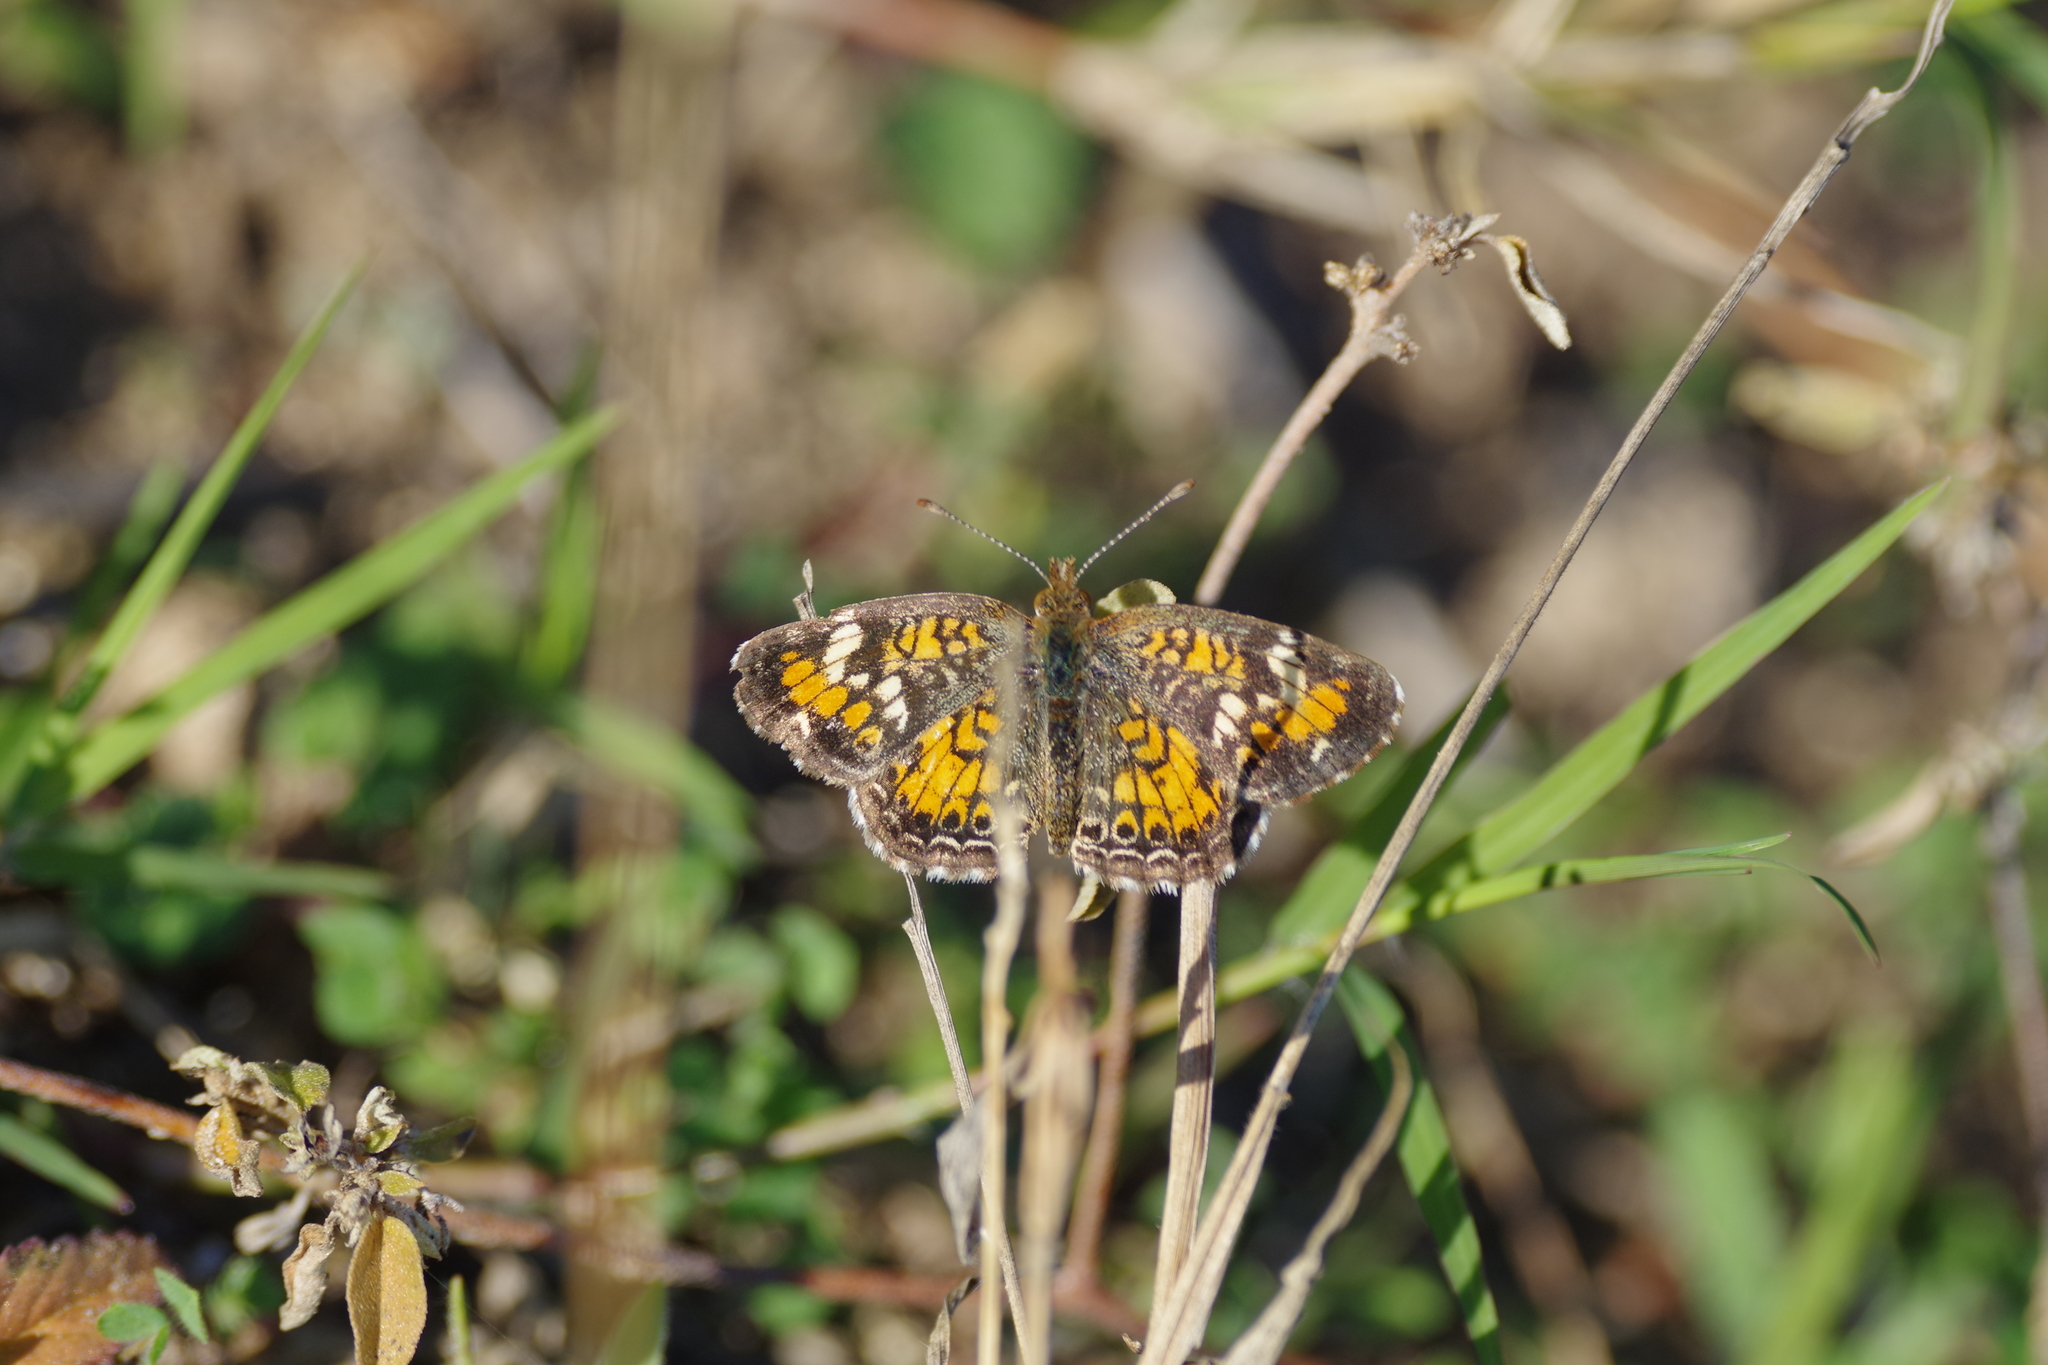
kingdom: Animalia
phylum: Arthropoda
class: Insecta
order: Lepidoptera
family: Nymphalidae
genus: Phyciodes
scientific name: Phyciodes phaon
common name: Phaon crescent
